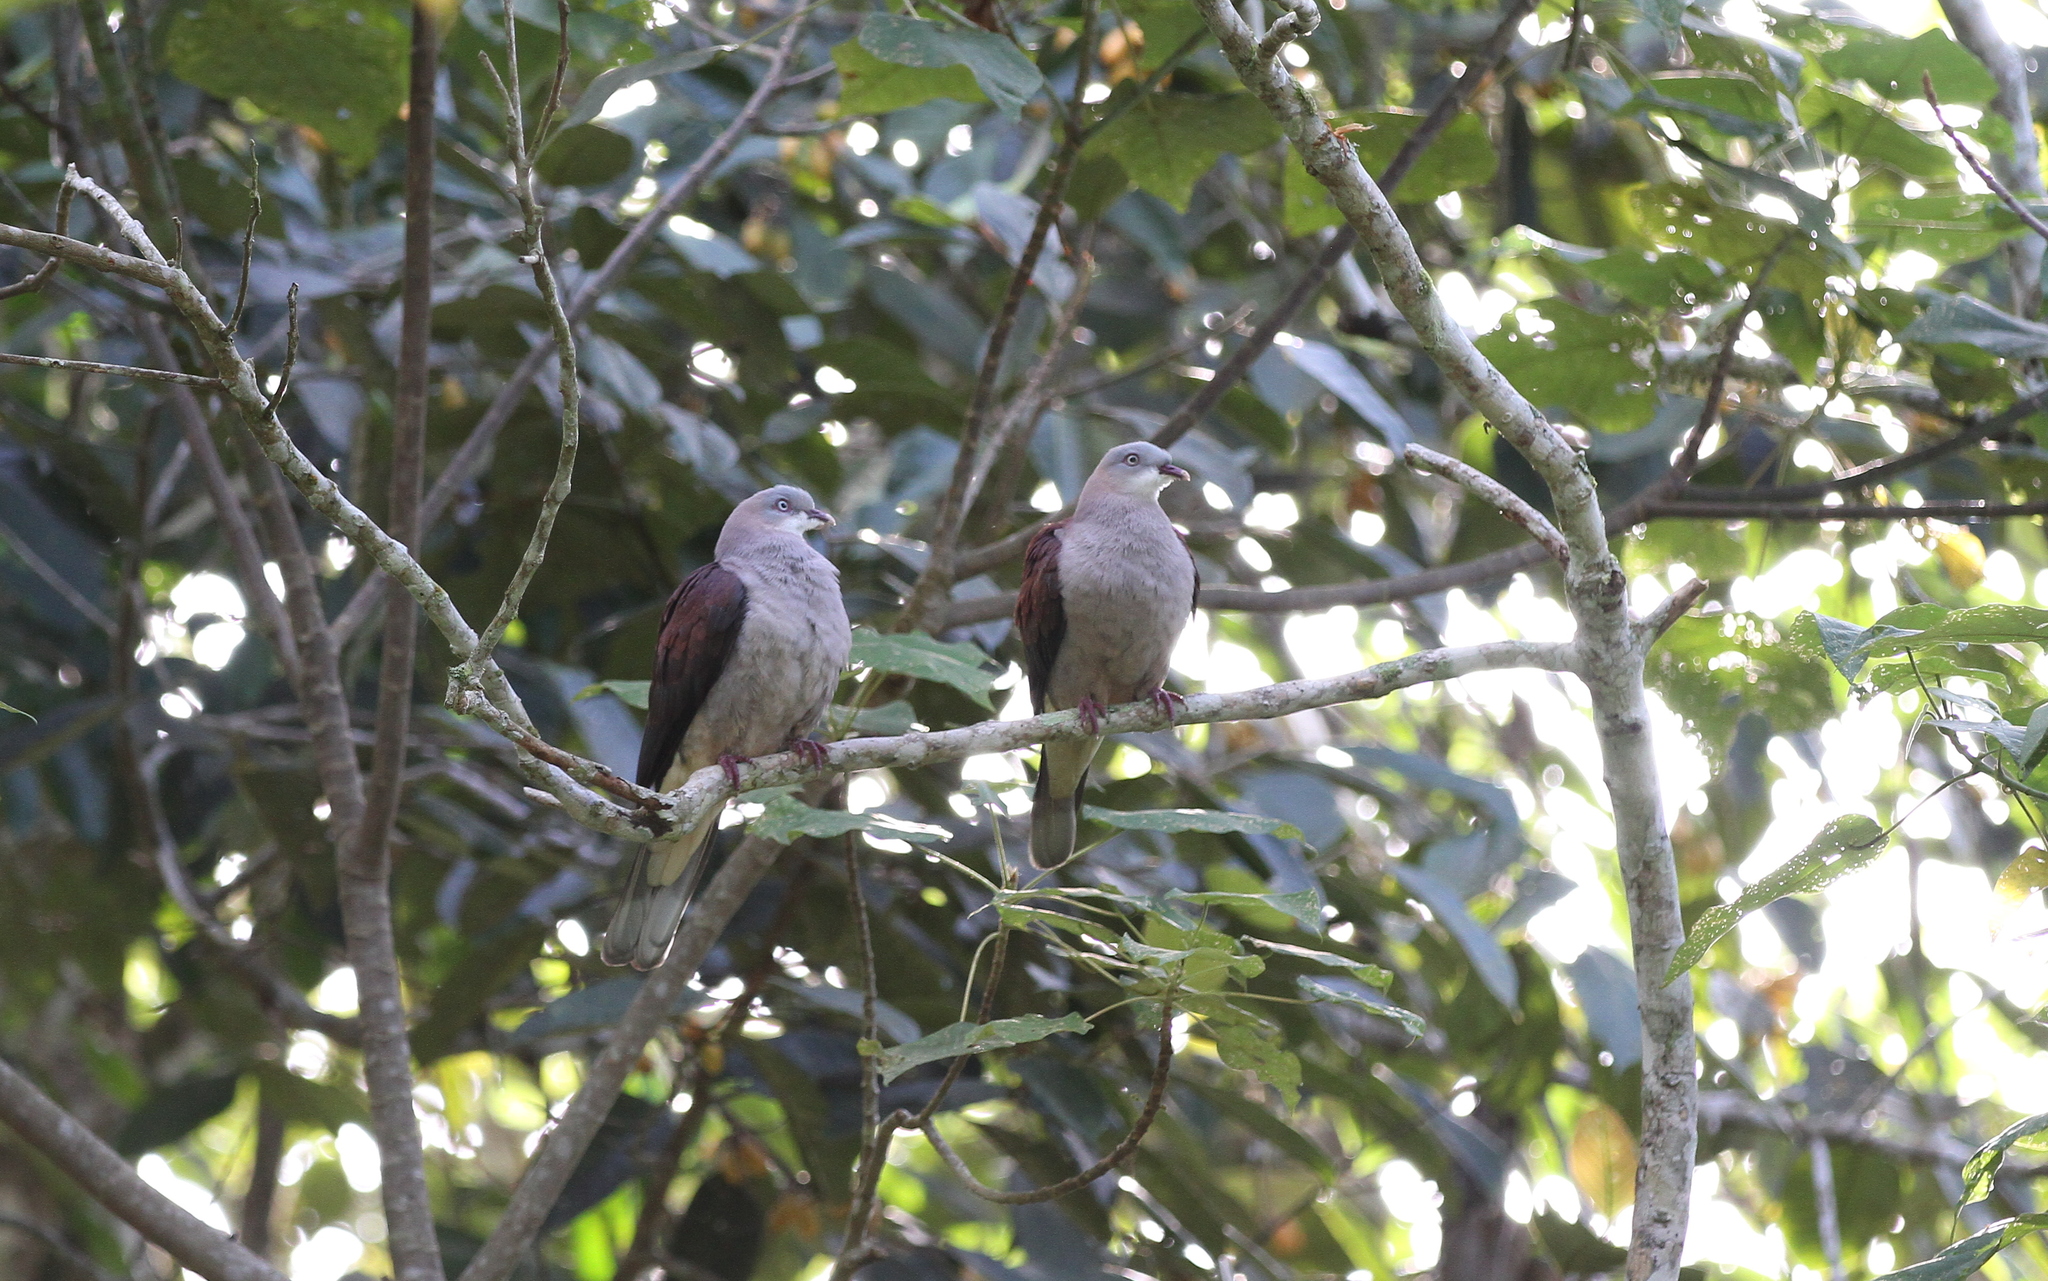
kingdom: Animalia
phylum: Chordata
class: Aves
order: Columbiformes
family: Columbidae
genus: Ducula
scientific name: Ducula badia
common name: Mountain imperial pigeon
